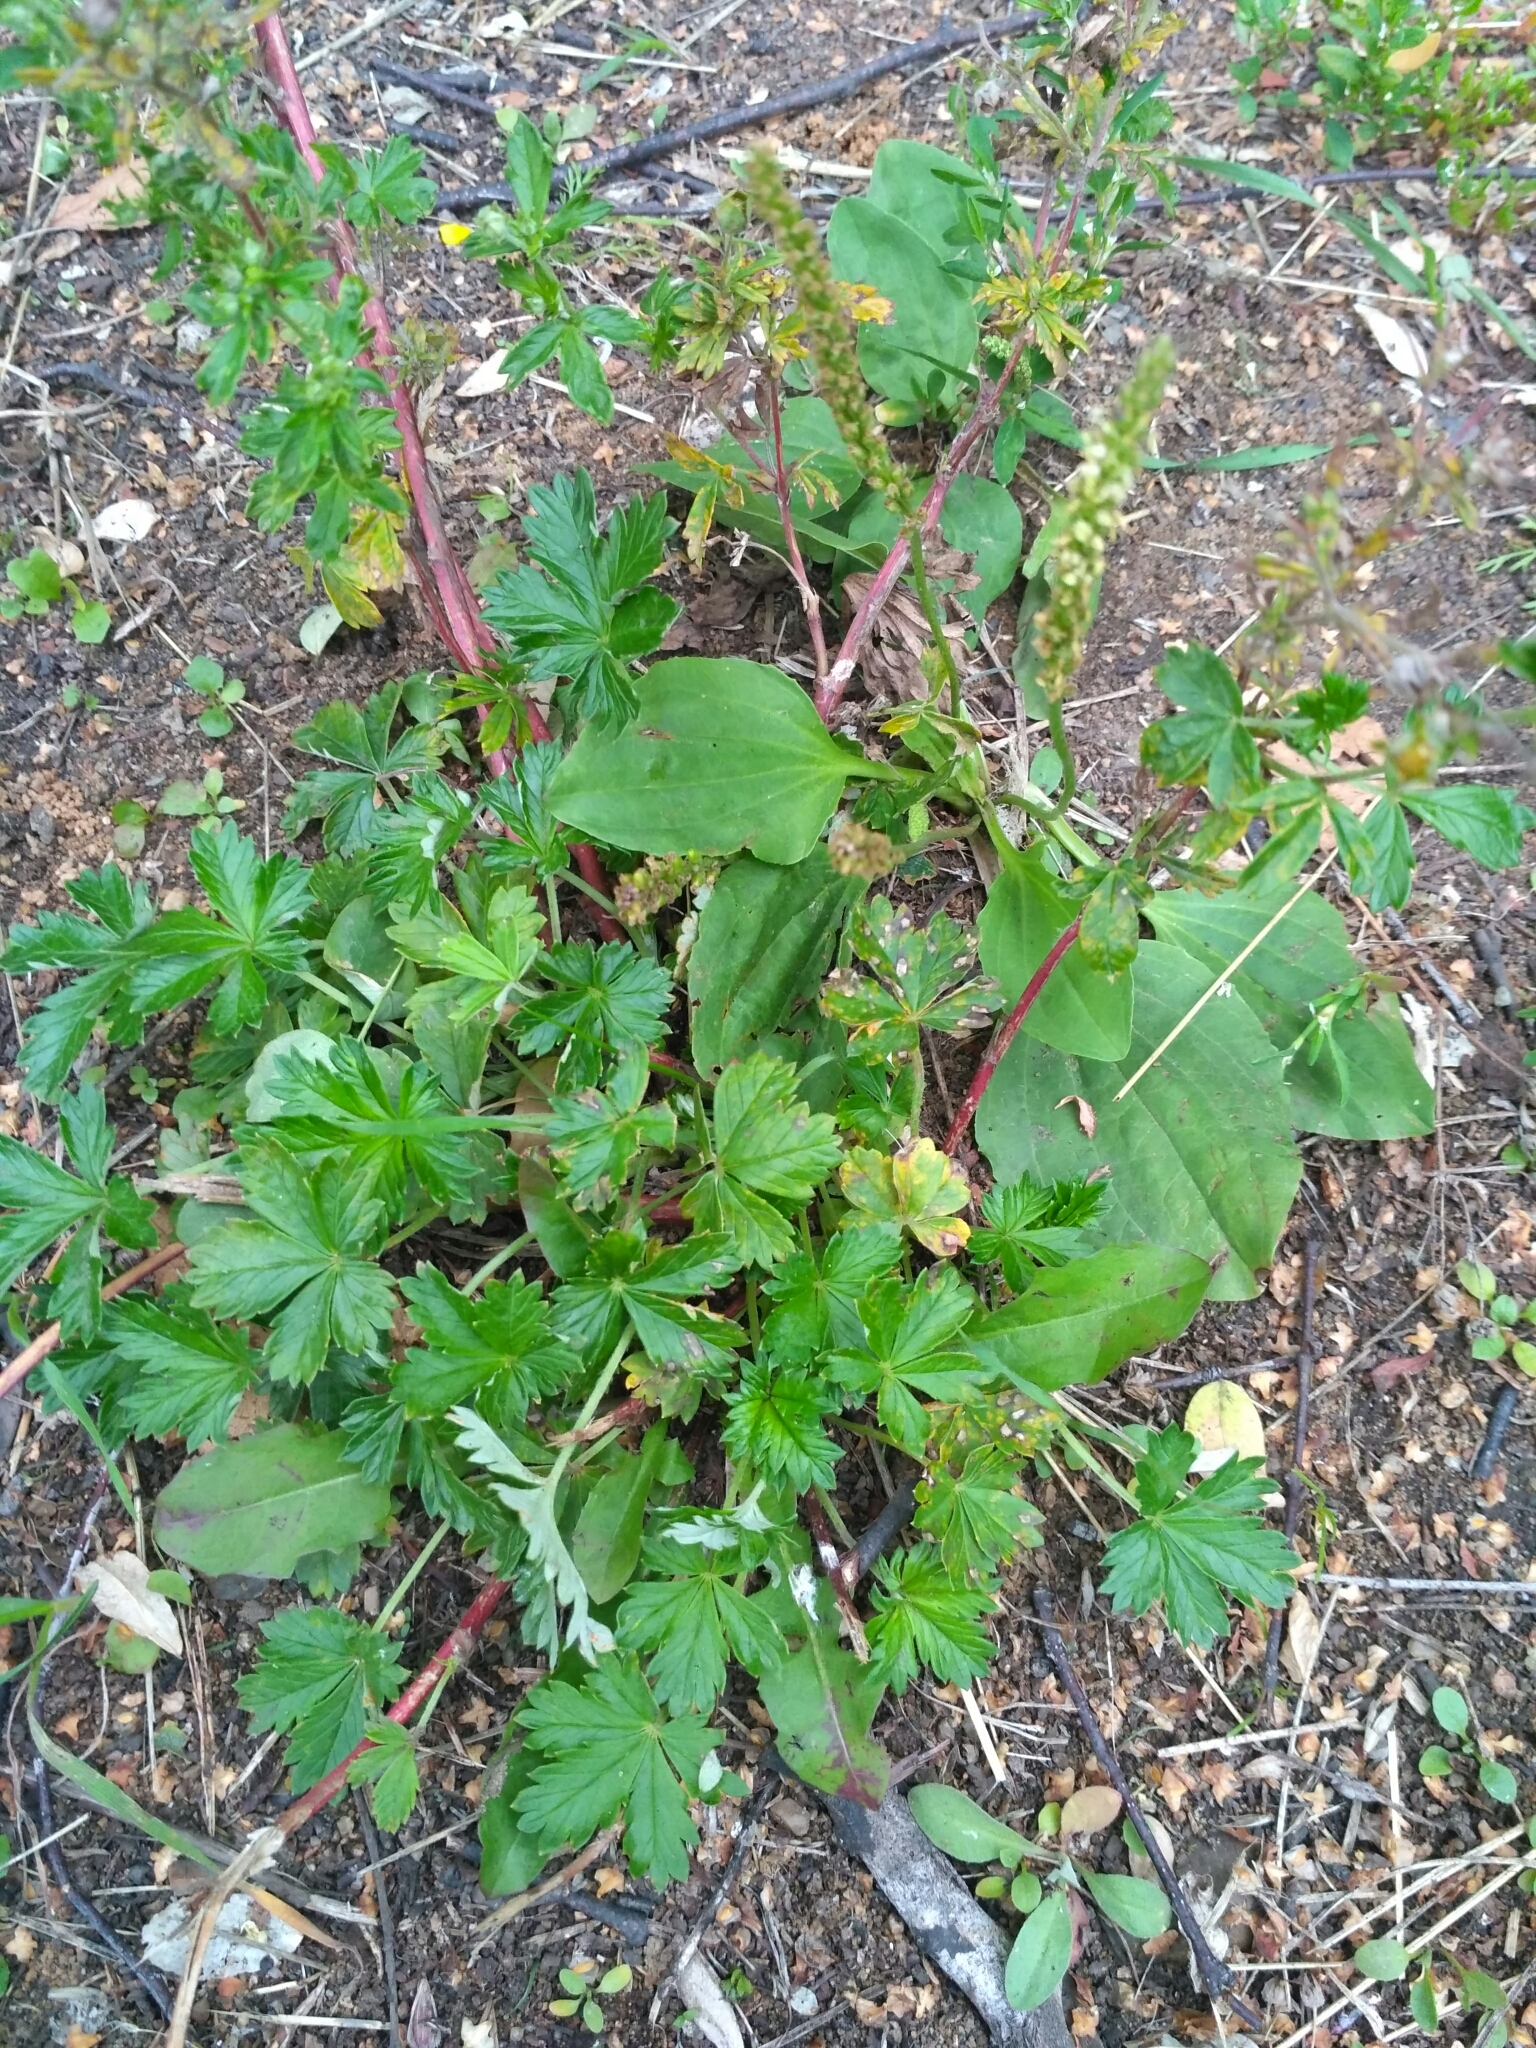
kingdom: Plantae
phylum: Tracheophyta
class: Magnoliopsida
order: Rosales
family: Rosaceae
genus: Potentilla
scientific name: Potentilla intermedia
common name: Downy cinquefoil
